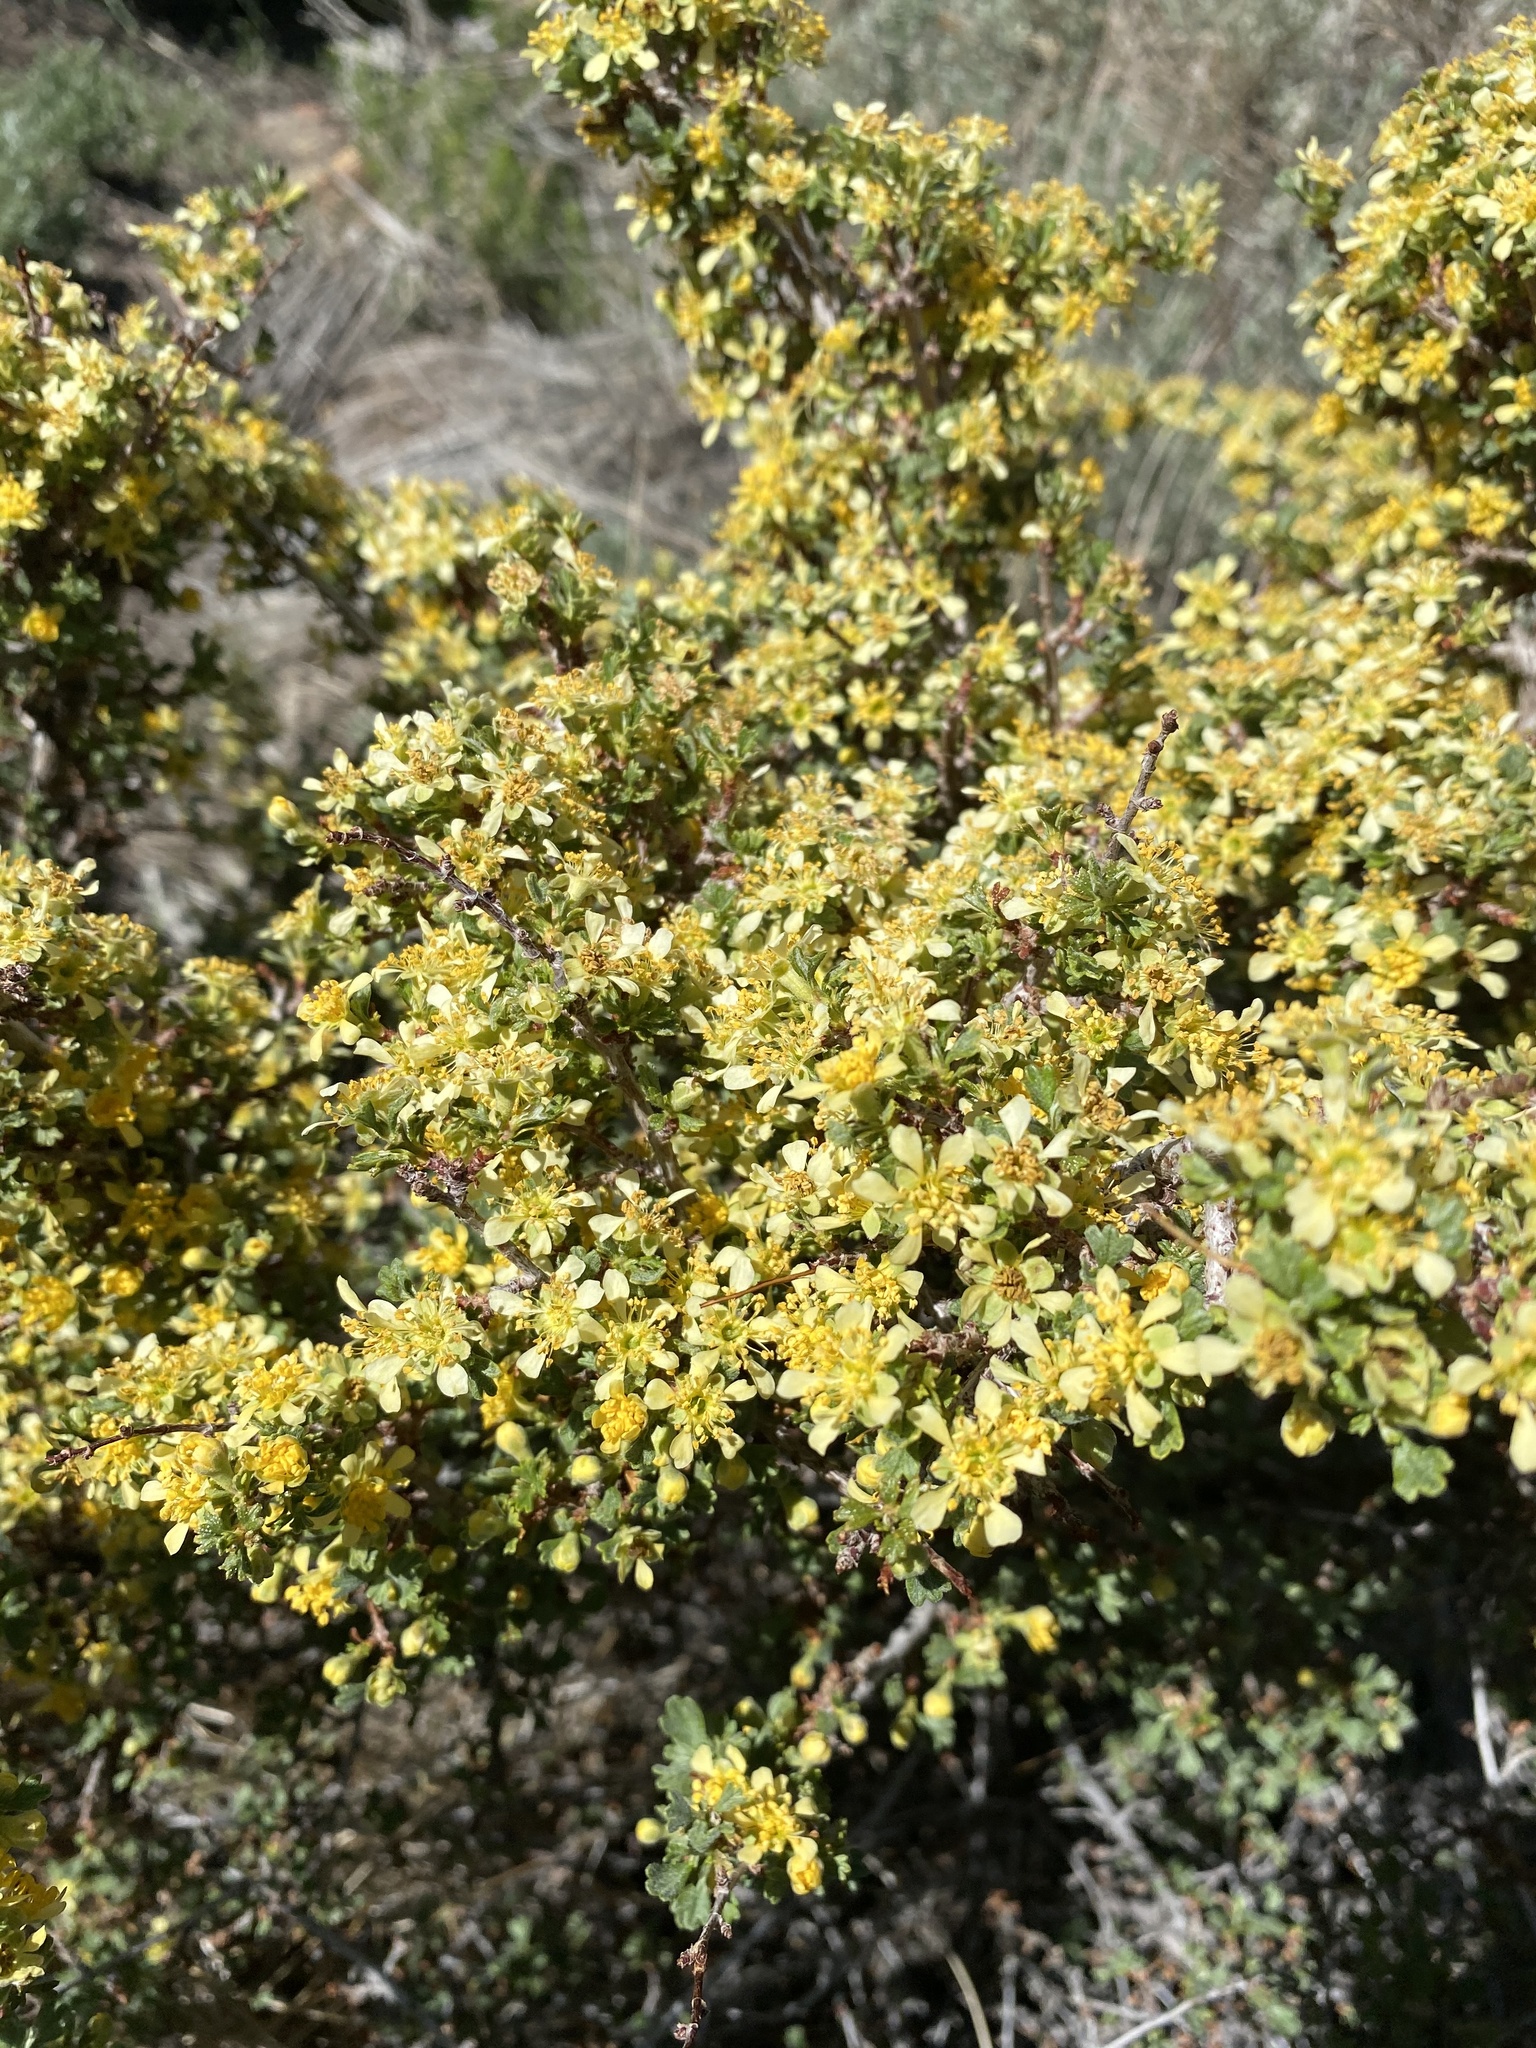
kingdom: Plantae
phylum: Tracheophyta
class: Magnoliopsida
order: Rosales
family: Rosaceae
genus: Purshia
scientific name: Purshia tridentata
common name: Antelope bitterbrush
